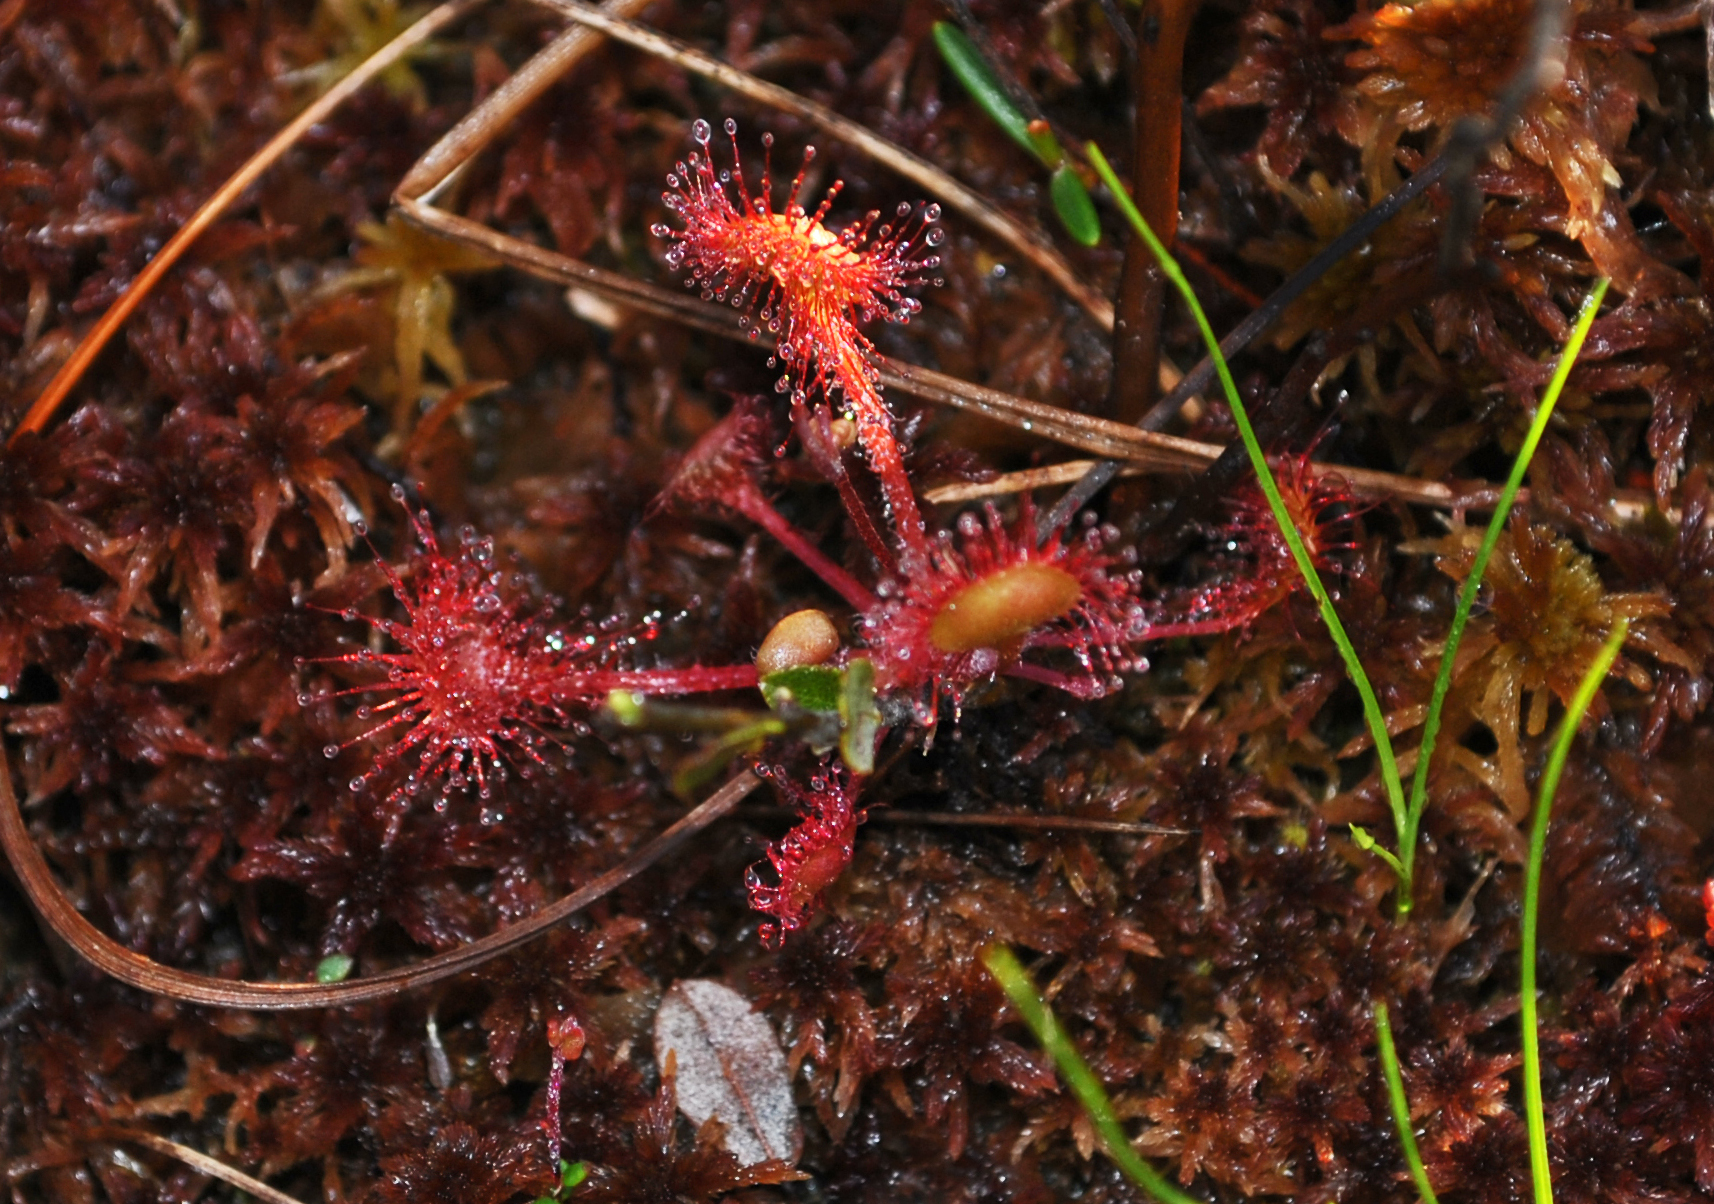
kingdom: Plantae
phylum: Tracheophyta
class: Magnoliopsida
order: Caryophyllales
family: Droseraceae
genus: Drosera
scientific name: Drosera rotundifolia
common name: Round-leaved sundew
